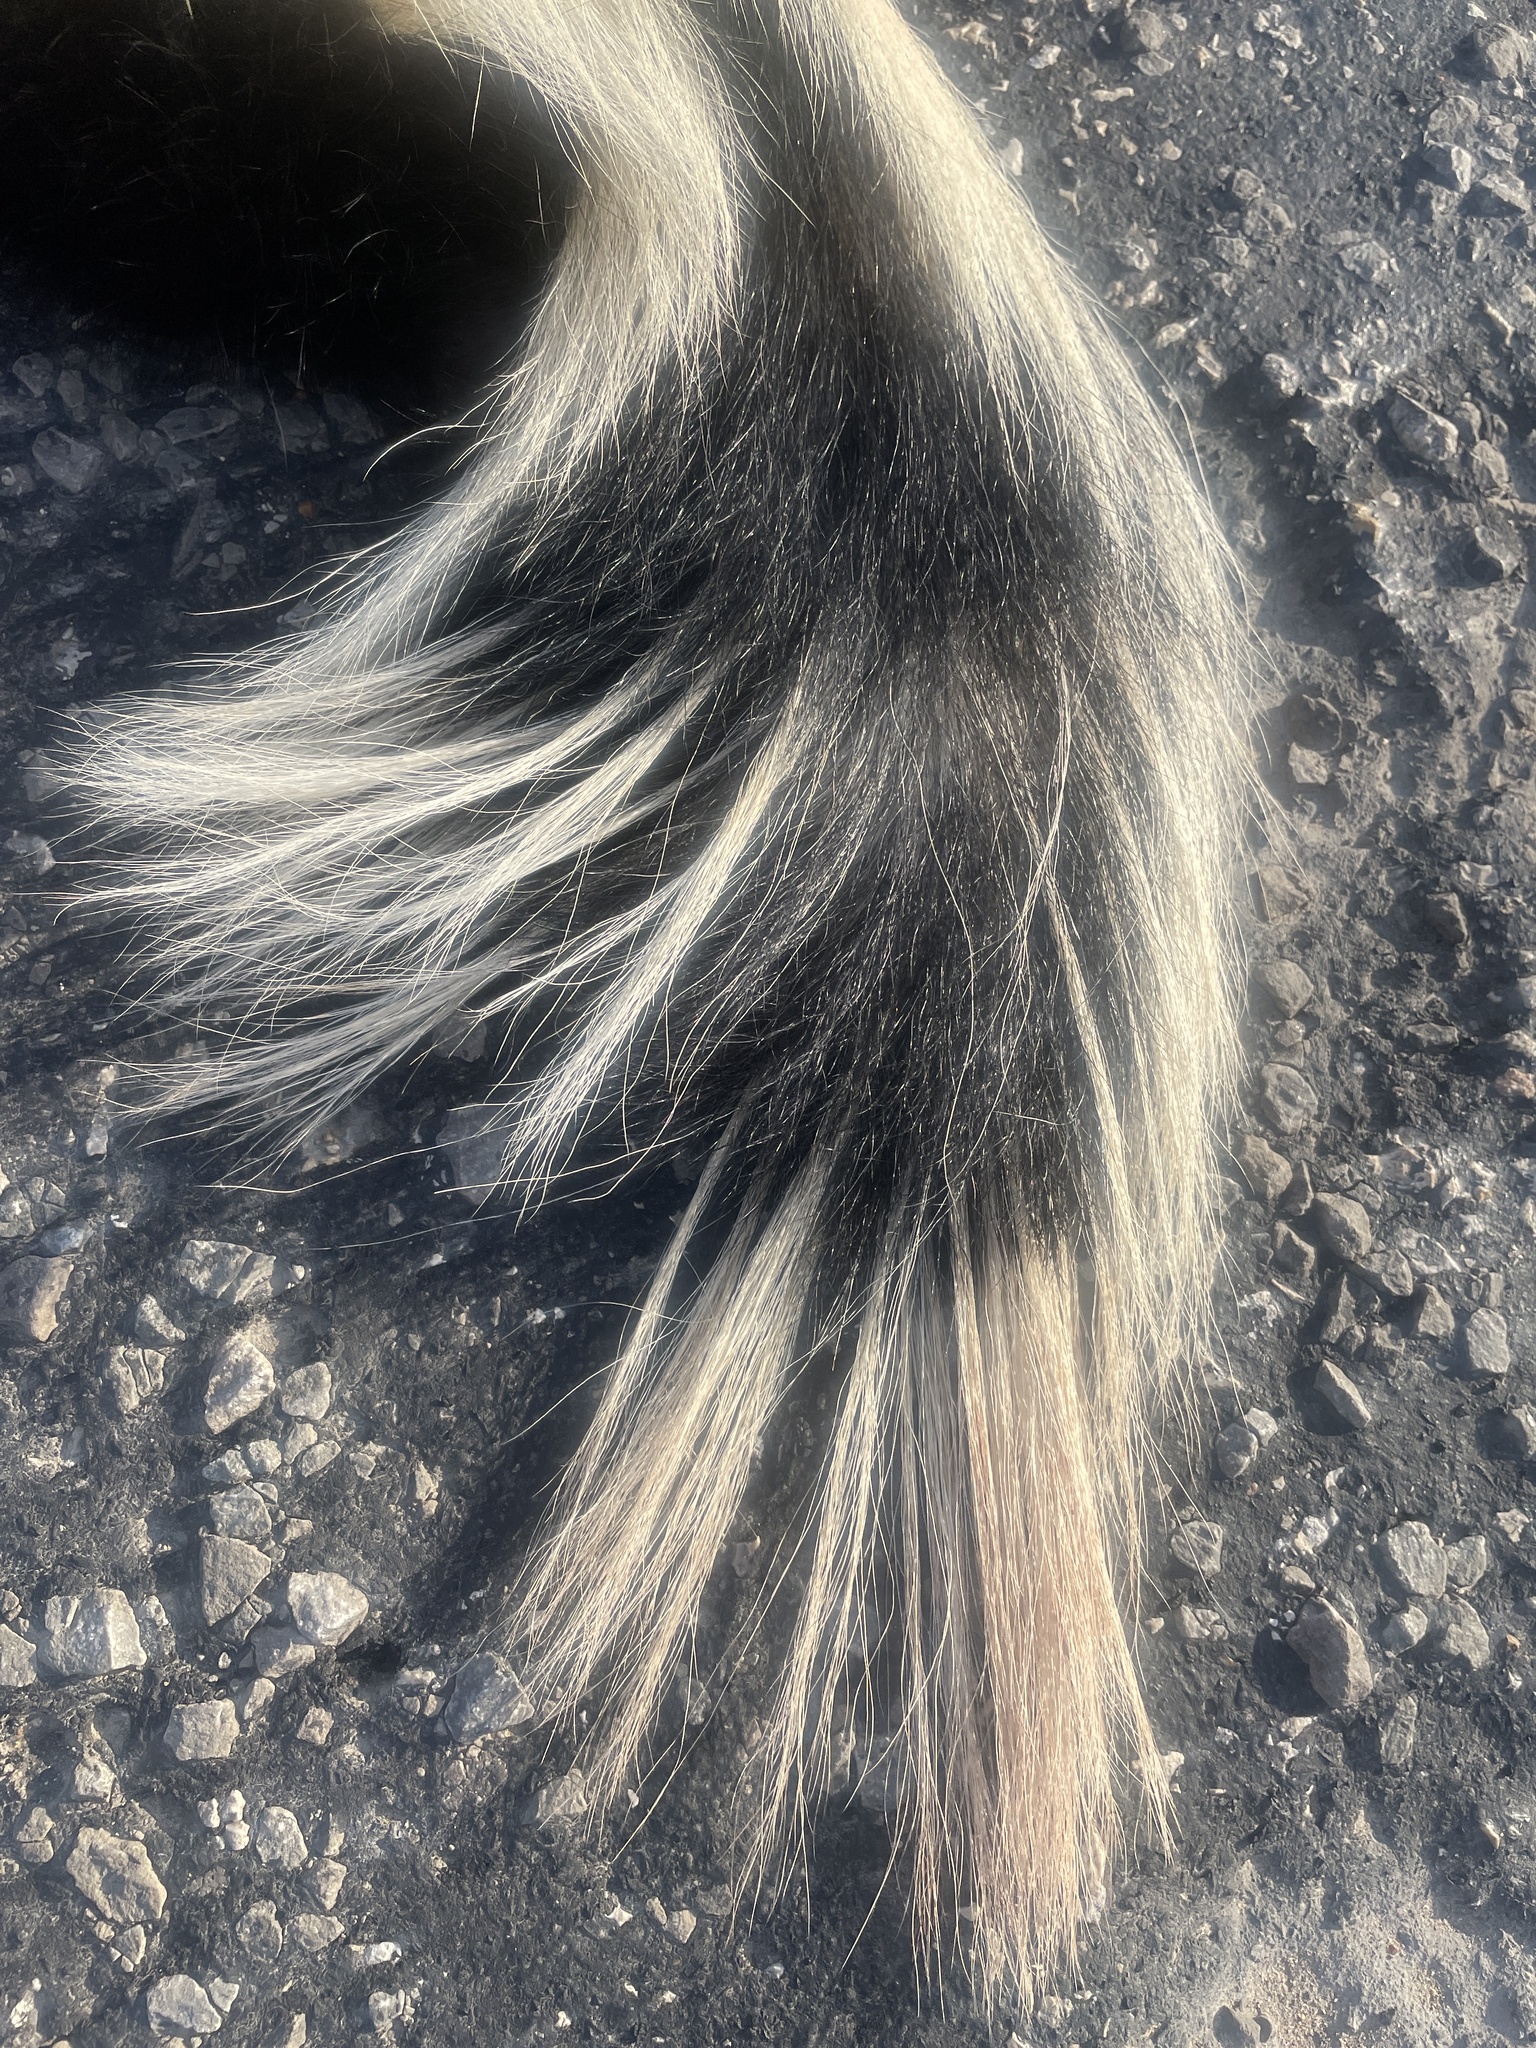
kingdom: Animalia
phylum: Chordata
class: Mammalia
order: Carnivora
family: Mephitidae
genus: Mephitis
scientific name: Mephitis mephitis
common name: Striped skunk
